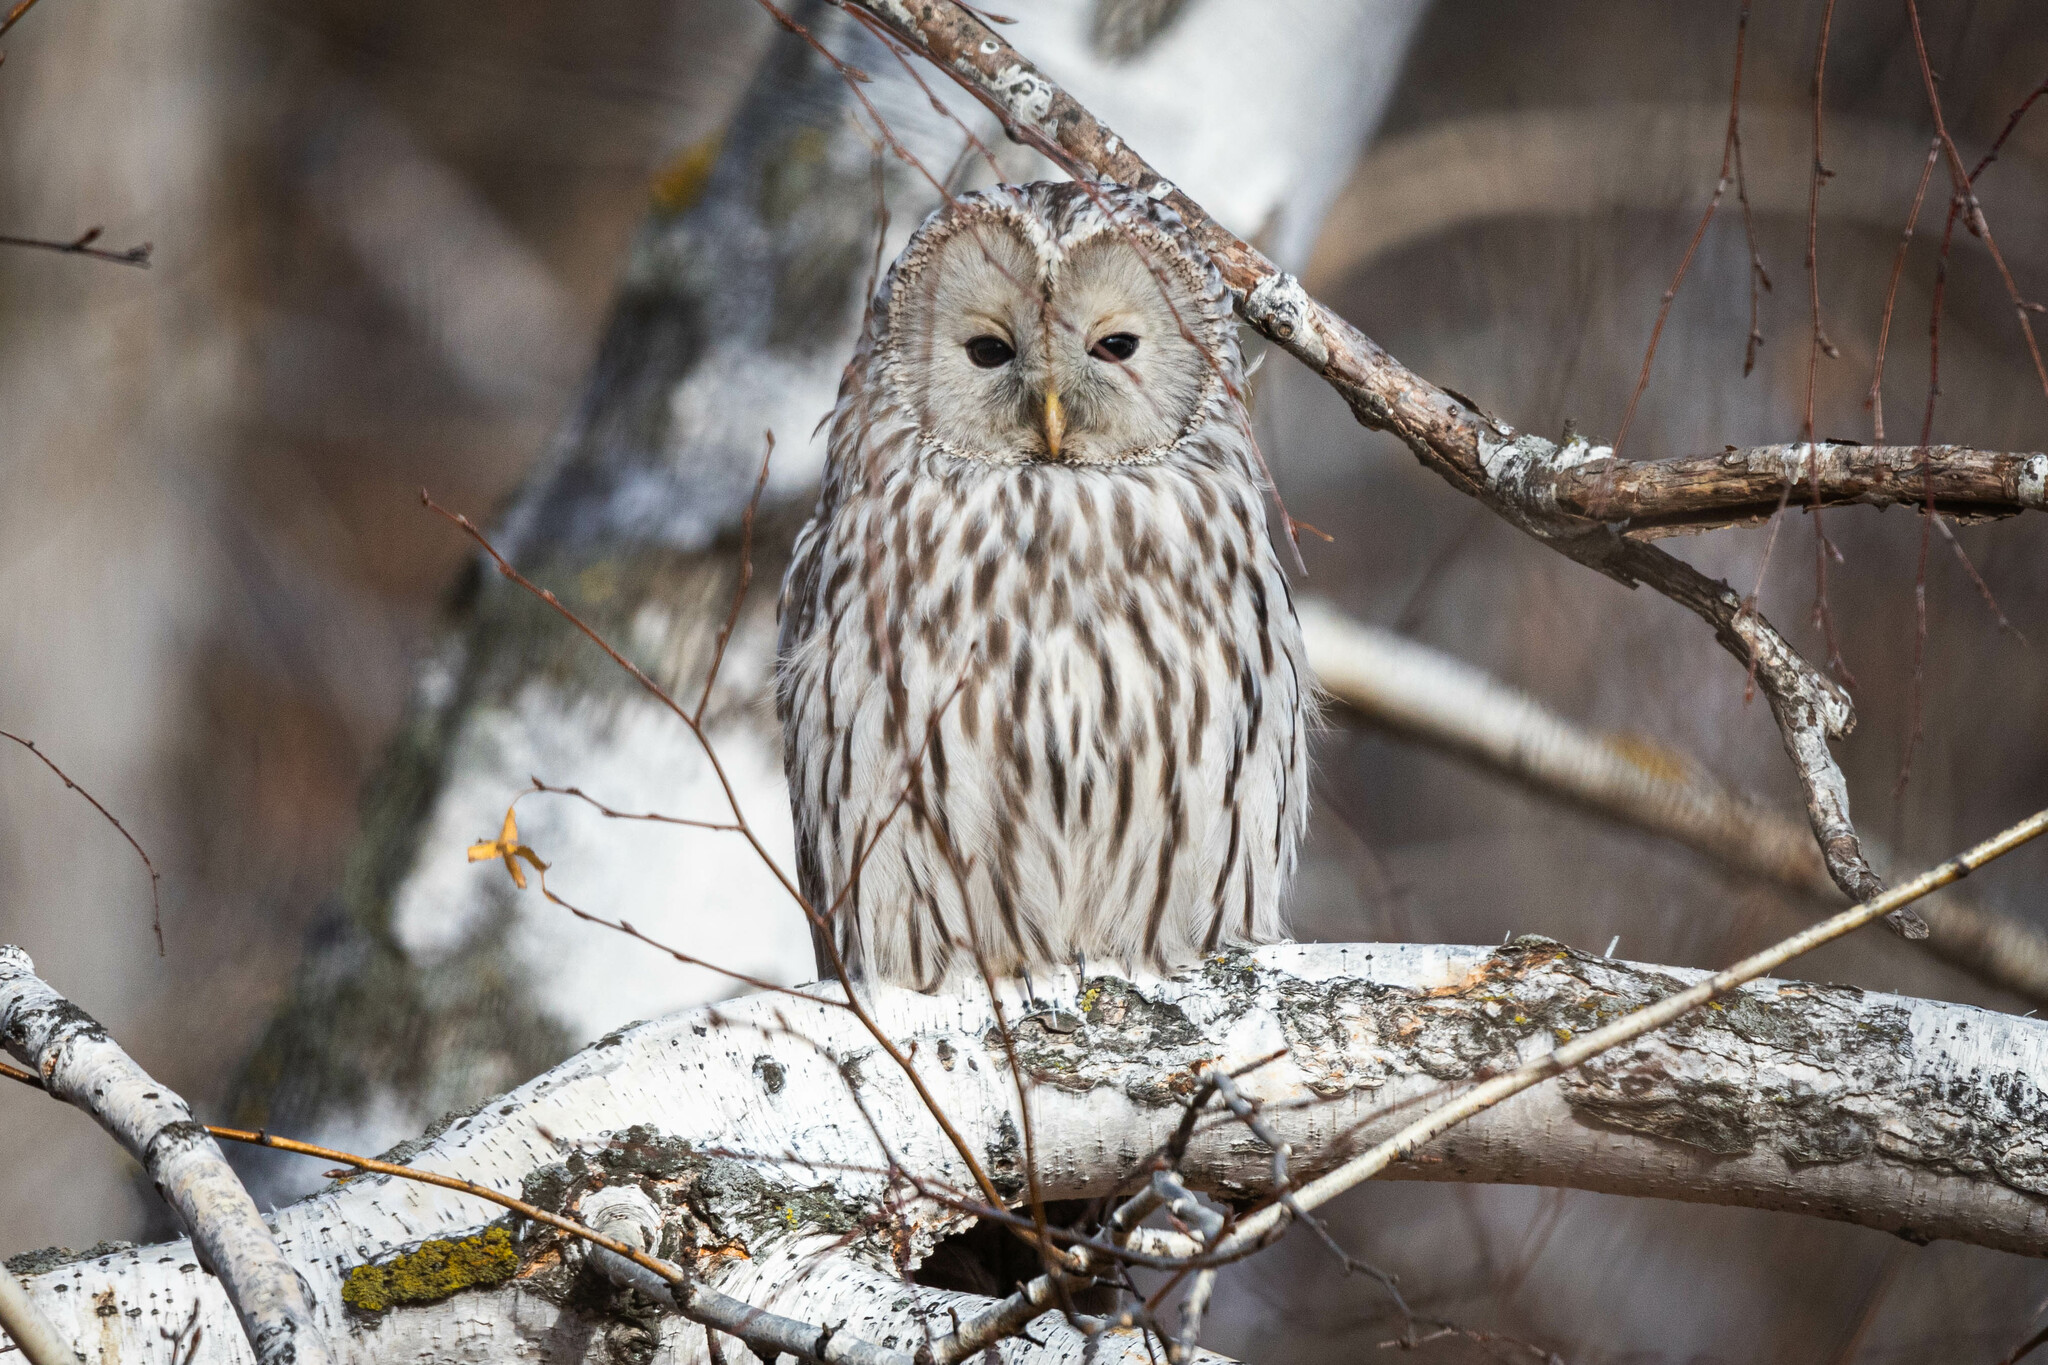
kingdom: Animalia
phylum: Chordata
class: Aves
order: Strigiformes
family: Strigidae
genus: Strix
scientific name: Strix uralensis
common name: Ural owl
